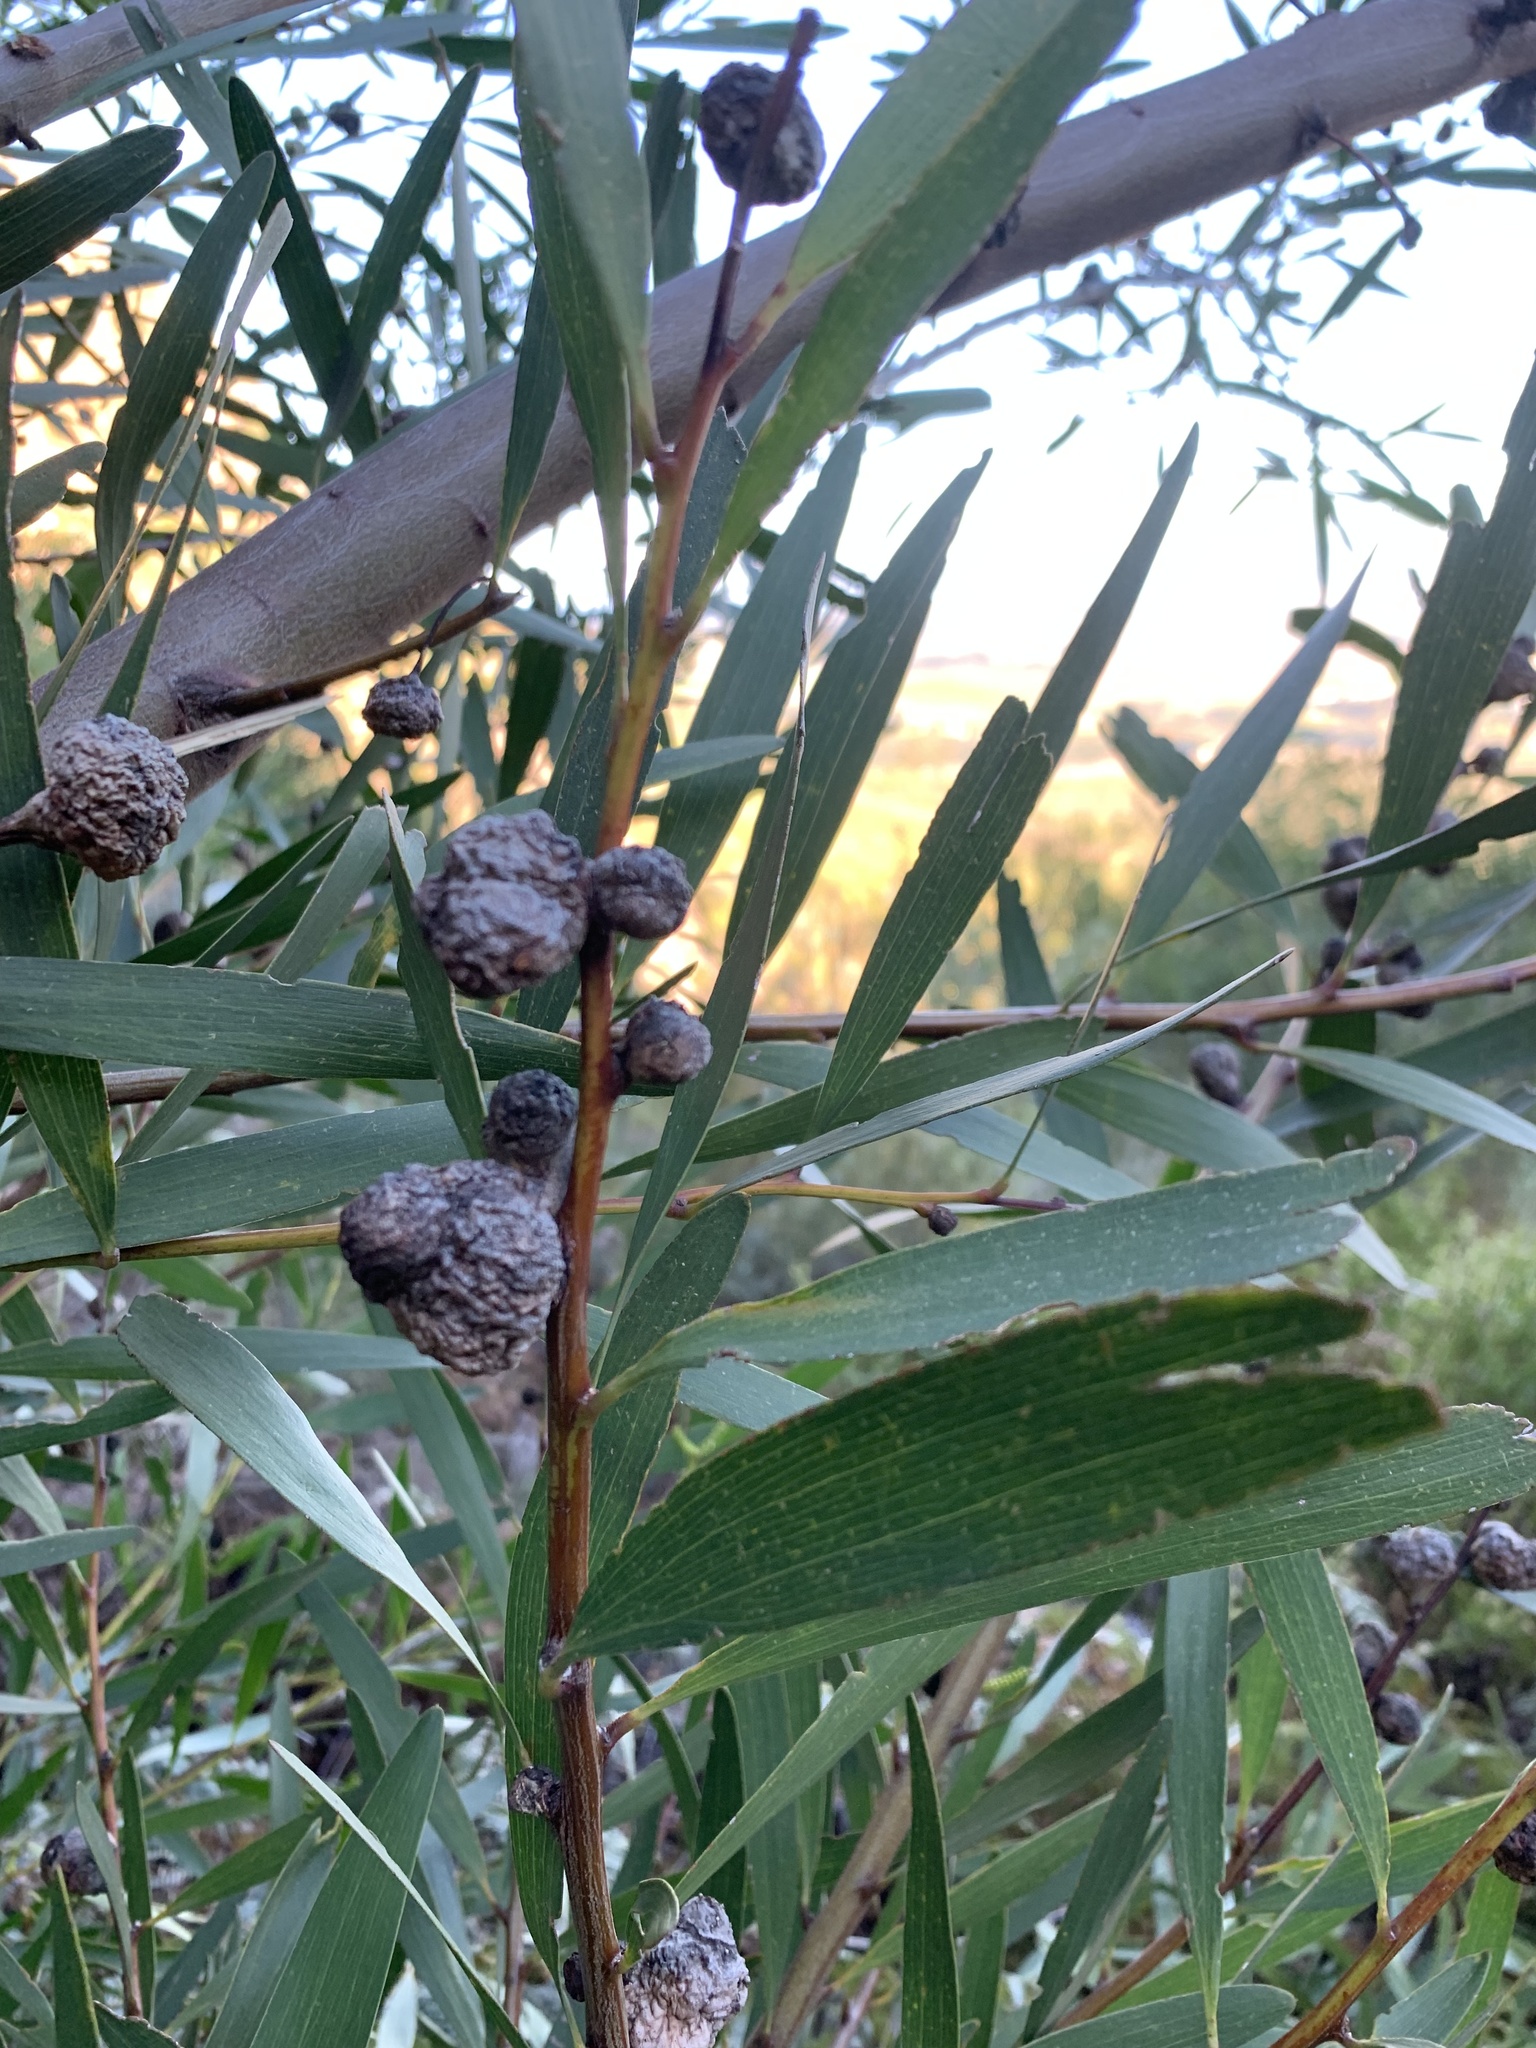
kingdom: Plantae
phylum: Tracheophyta
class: Magnoliopsida
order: Fabales
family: Fabaceae
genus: Acacia
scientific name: Acacia longifolia
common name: Sydney golden wattle
